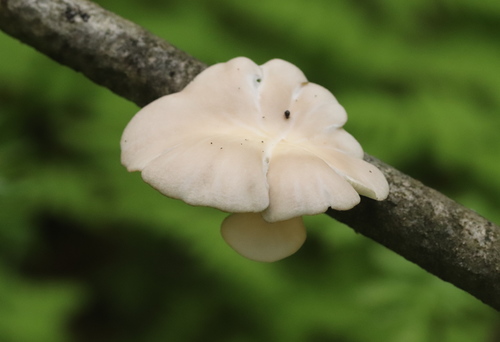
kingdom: Fungi
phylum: Basidiomycota
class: Agaricomycetes
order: Agaricales
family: Pleurotaceae
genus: Pleurotus
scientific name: Pleurotus pulmonarius
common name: Pale oyster
